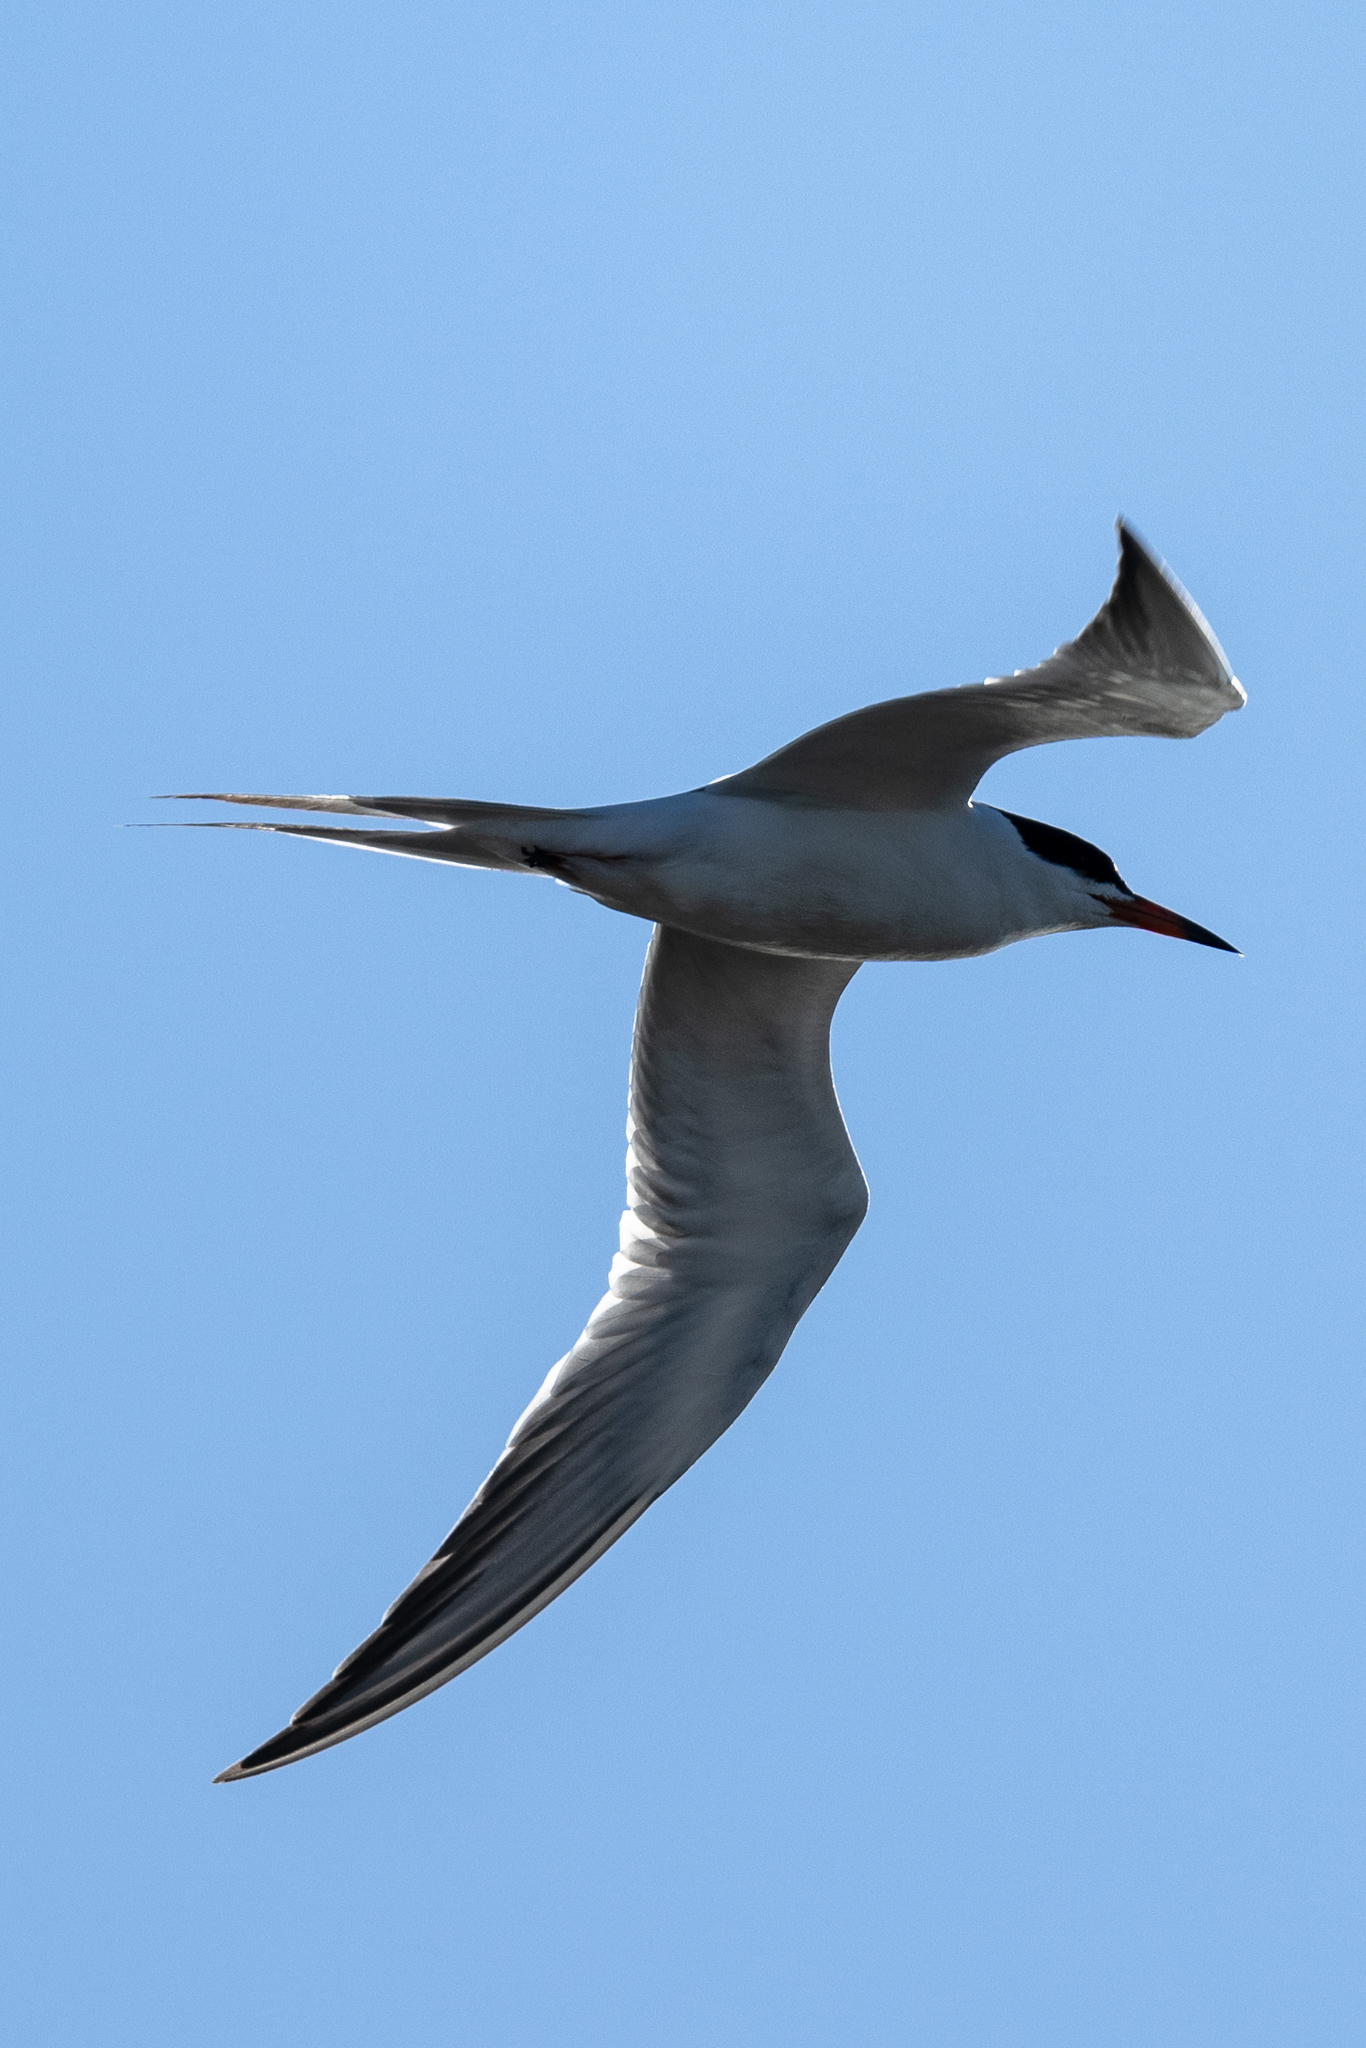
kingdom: Animalia
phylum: Chordata
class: Aves
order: Charadriiformes
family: Laridae
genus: Sterna
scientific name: Sterna forsteri
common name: Forster's tern
